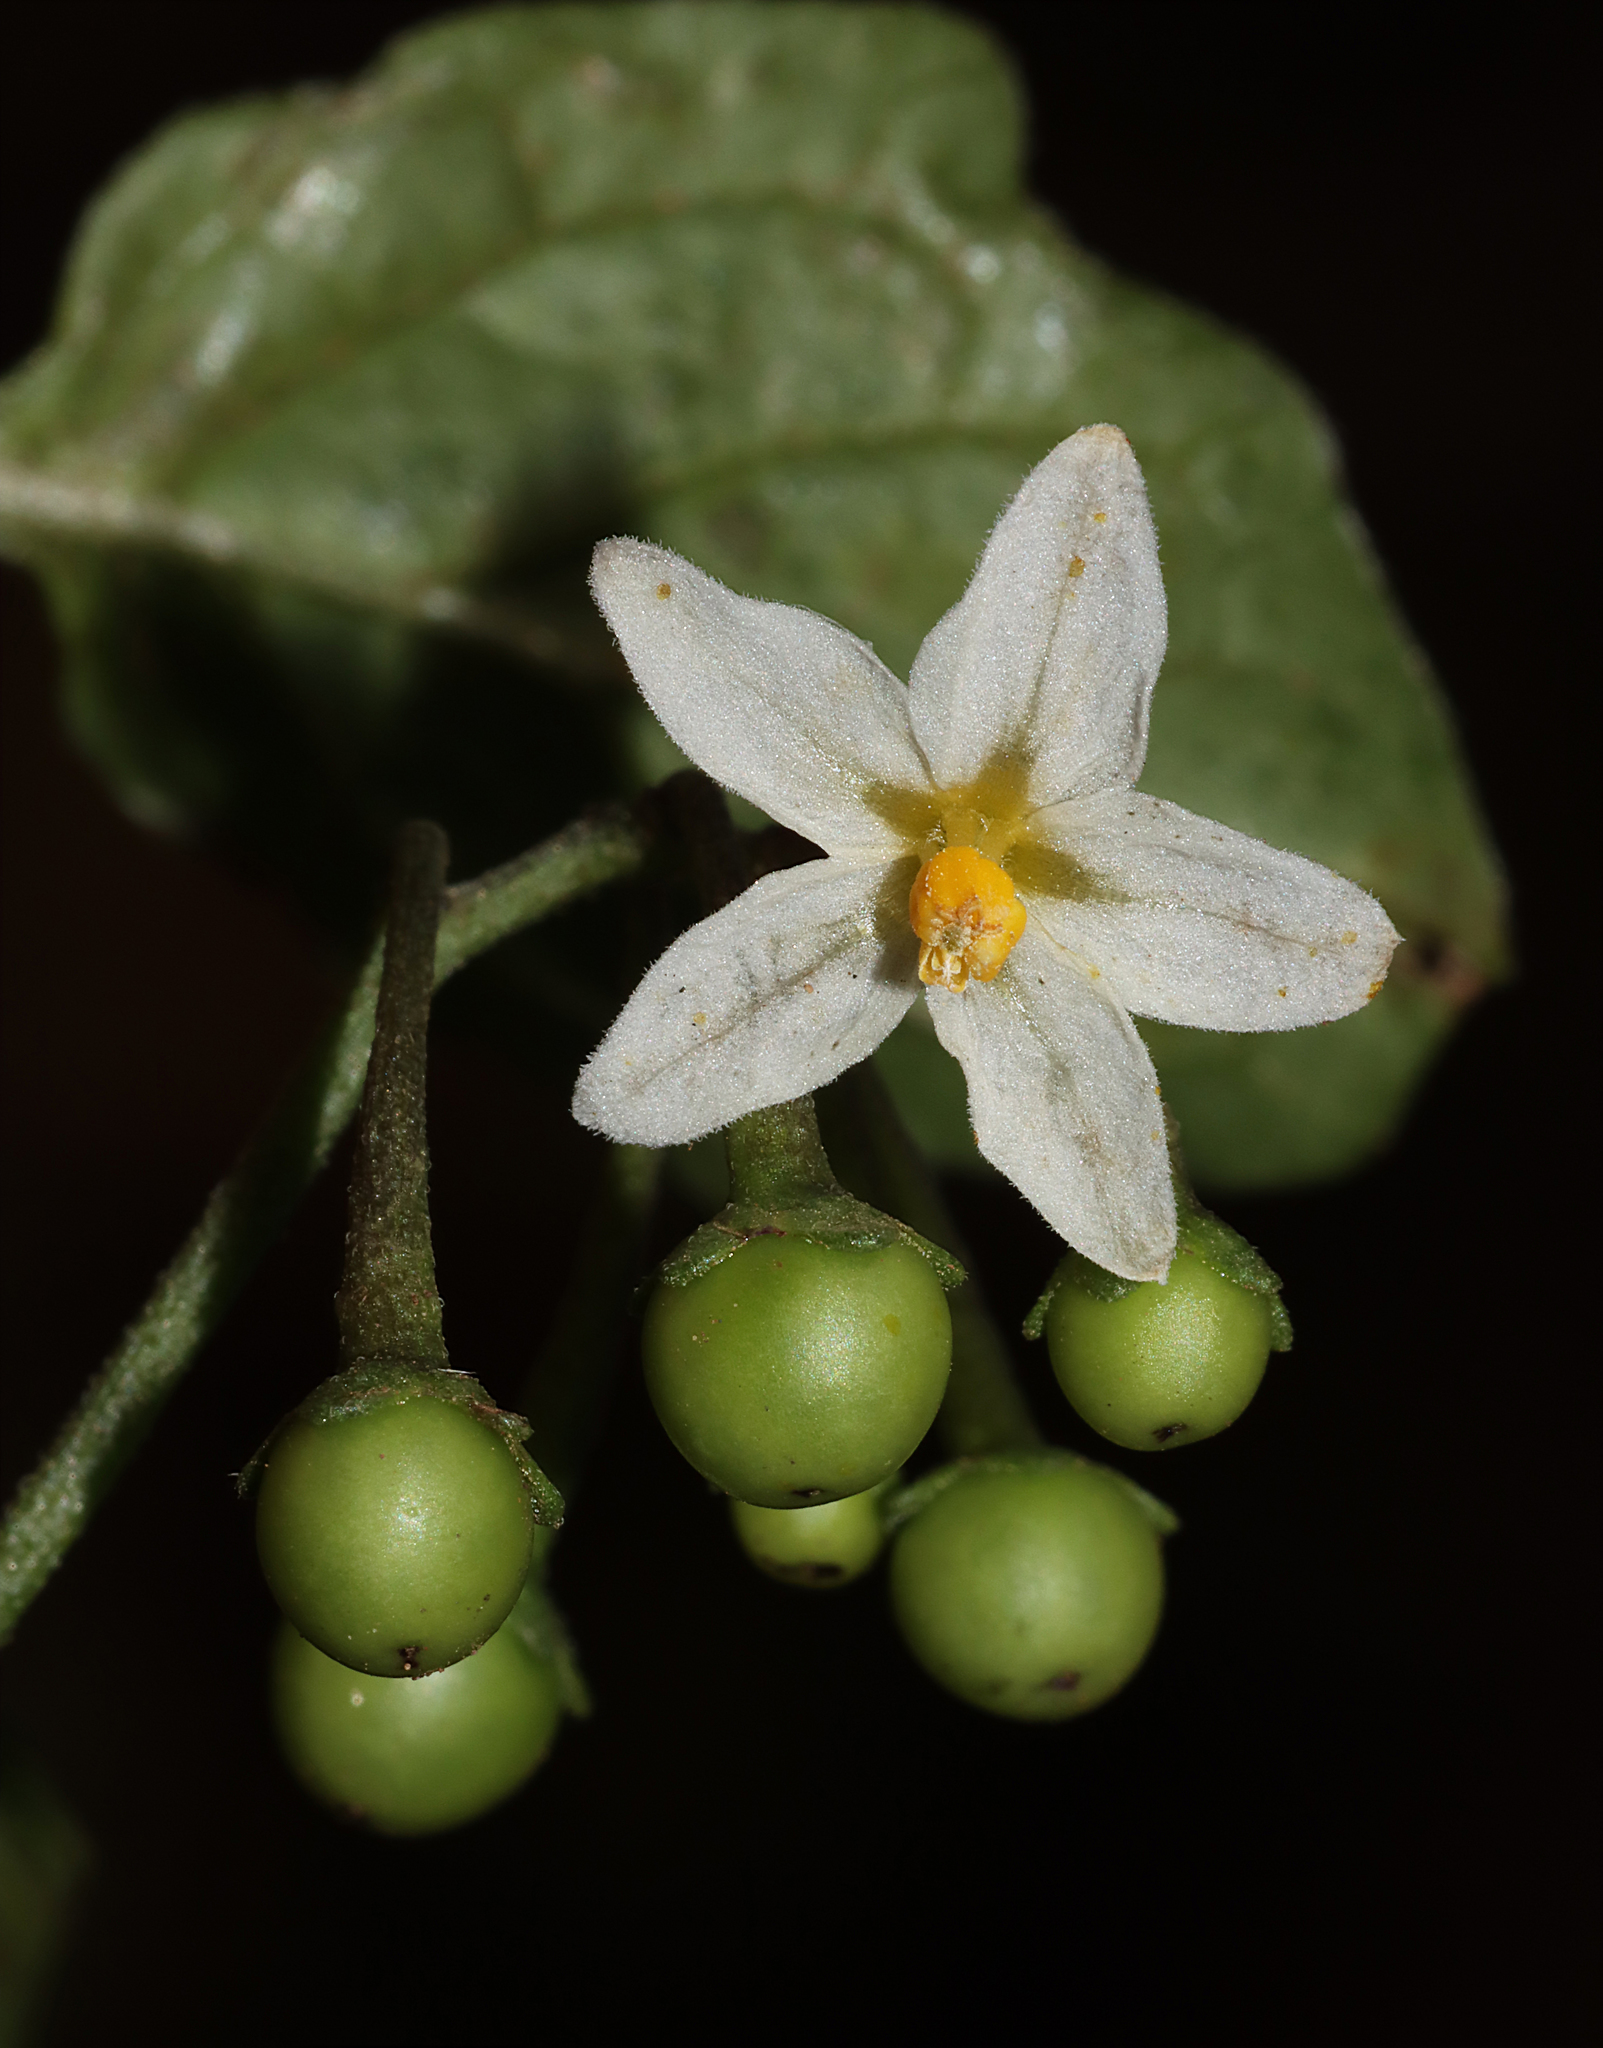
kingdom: Plantae
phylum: Tracheophyta
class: Magnoliopsida
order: Solanales
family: Solanaceae
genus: Solanum
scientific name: Solanum nigrum
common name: Black nightshade
